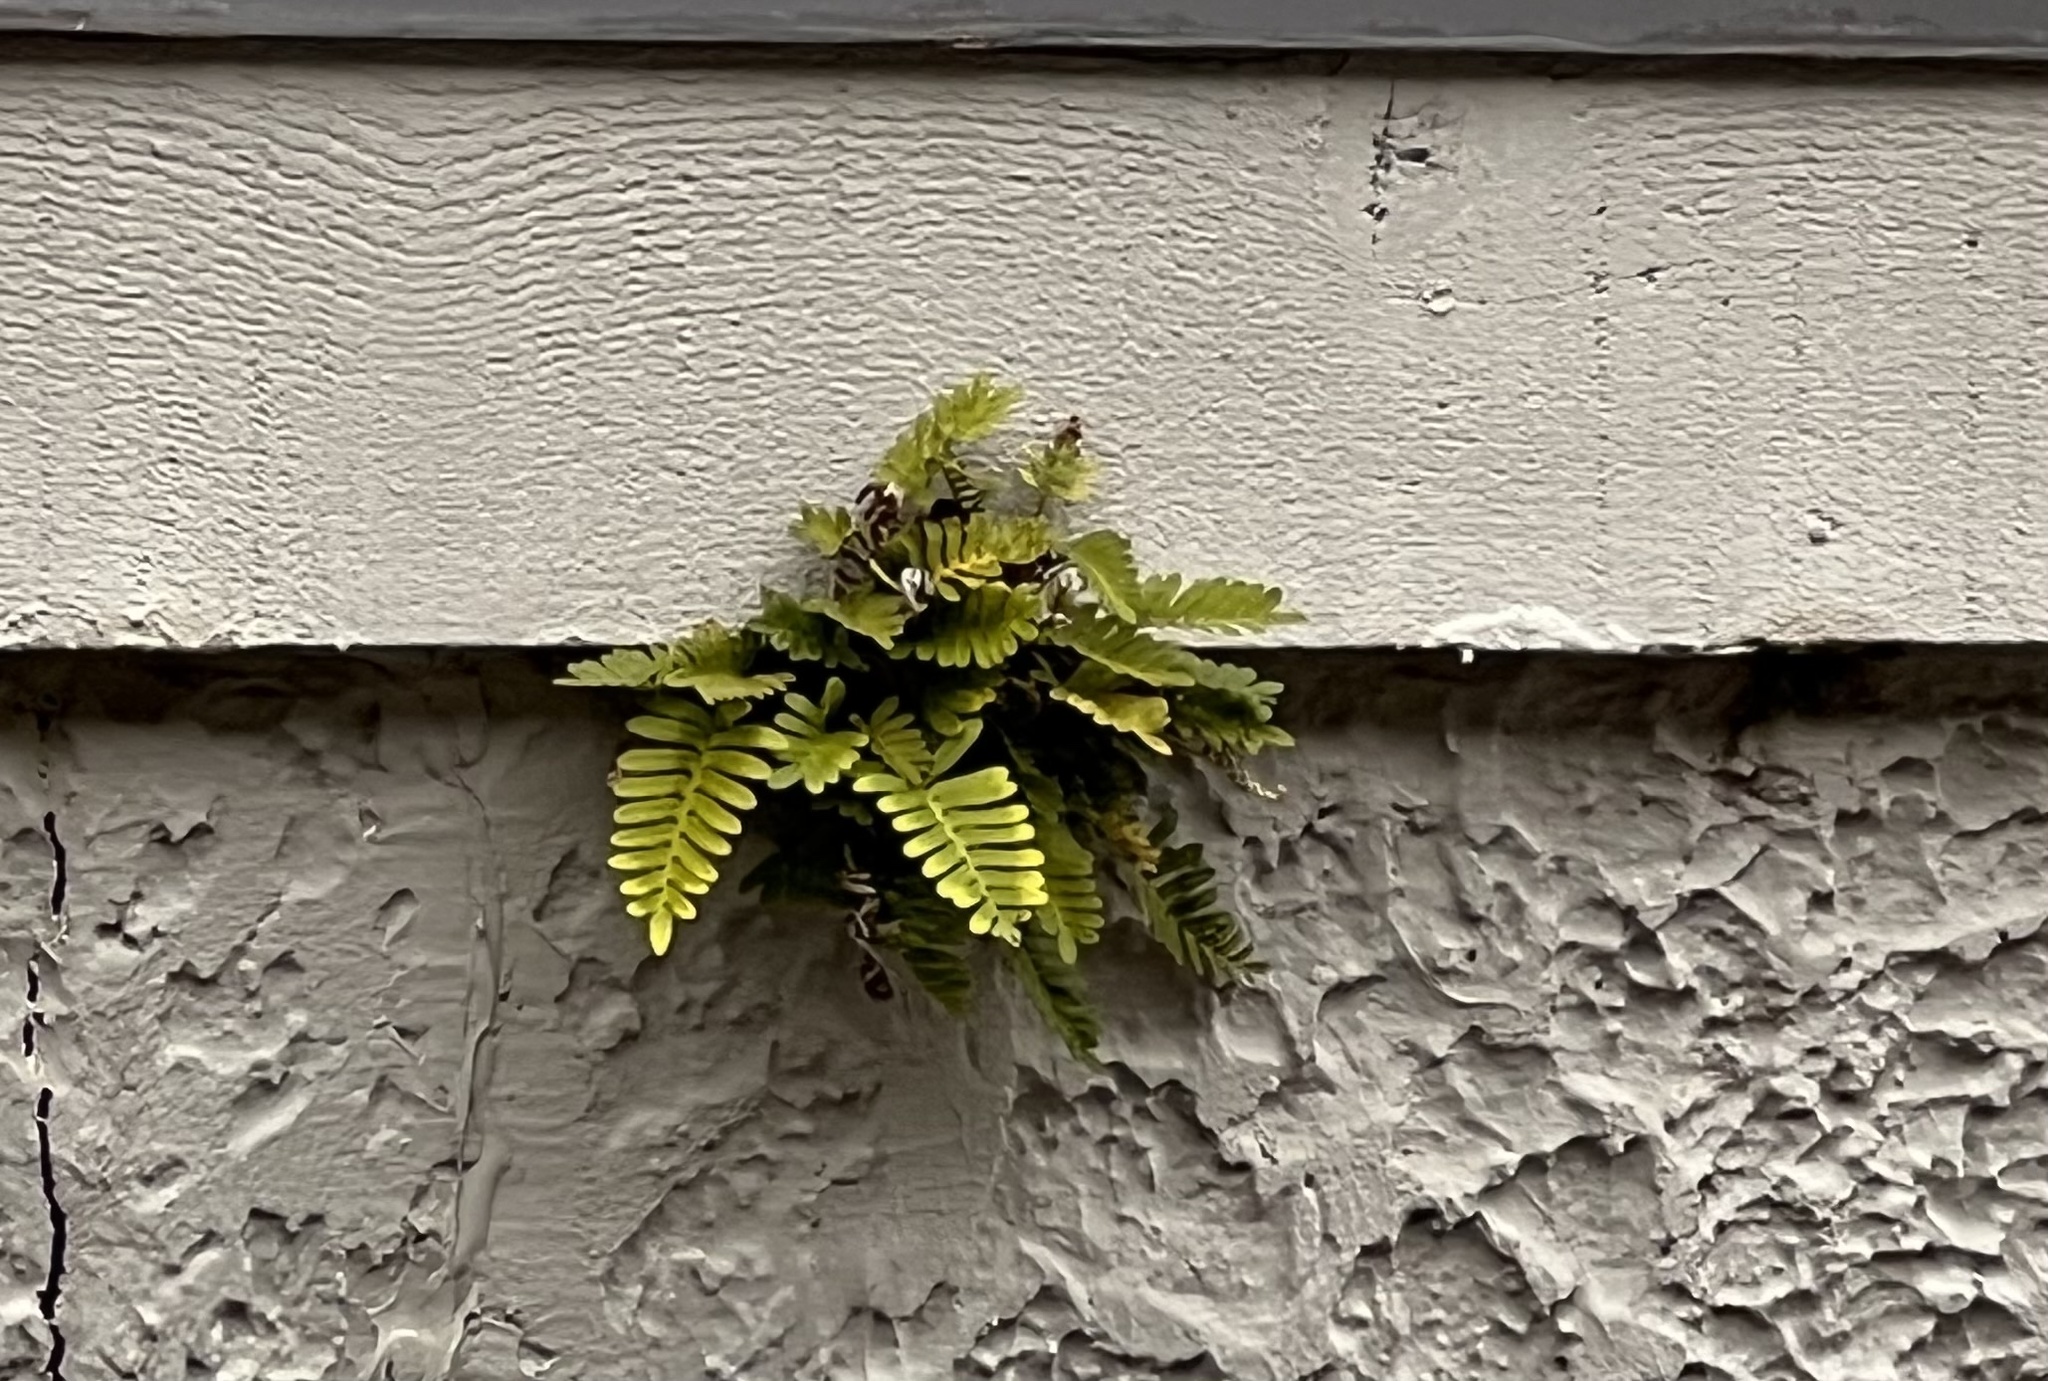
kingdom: Plantae
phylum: Tracheophyta
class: Polypodiopsida
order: Polypodiales
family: Polypodiaceae
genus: Pleopeltis
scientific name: Pleopeltis michauxiana
